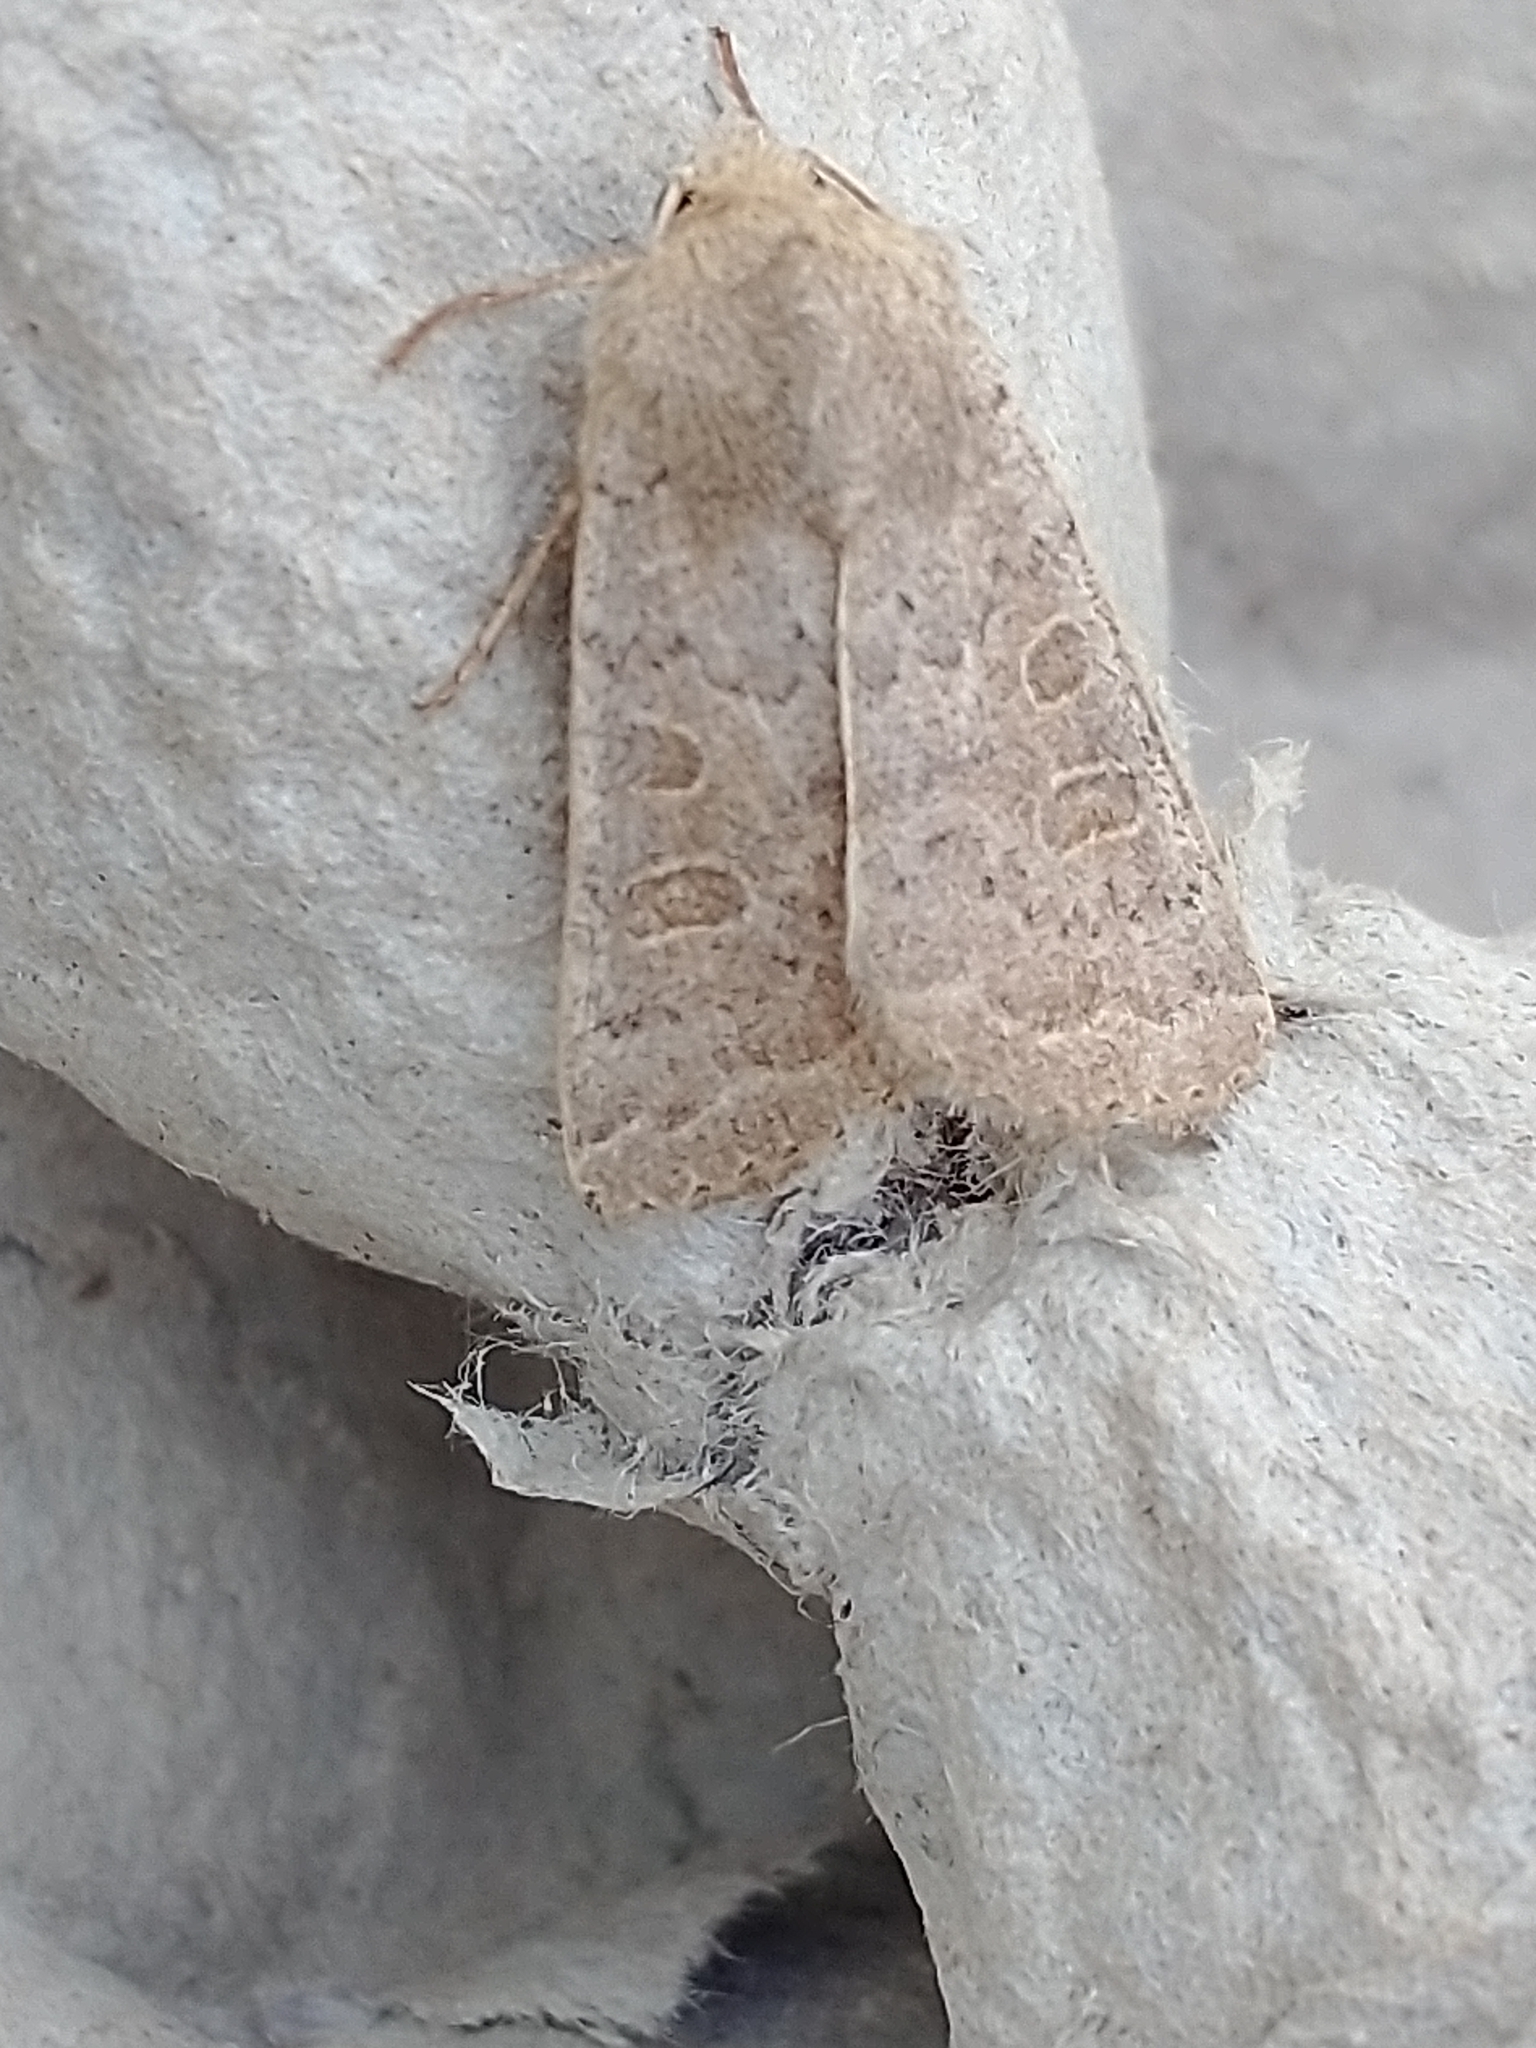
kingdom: Animalia
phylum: Arthropoda
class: Insecta
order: Lepidoptera
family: Noctuidae
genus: Hoplodrina
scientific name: Hoplodrina ambigua
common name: Vine's rustic
